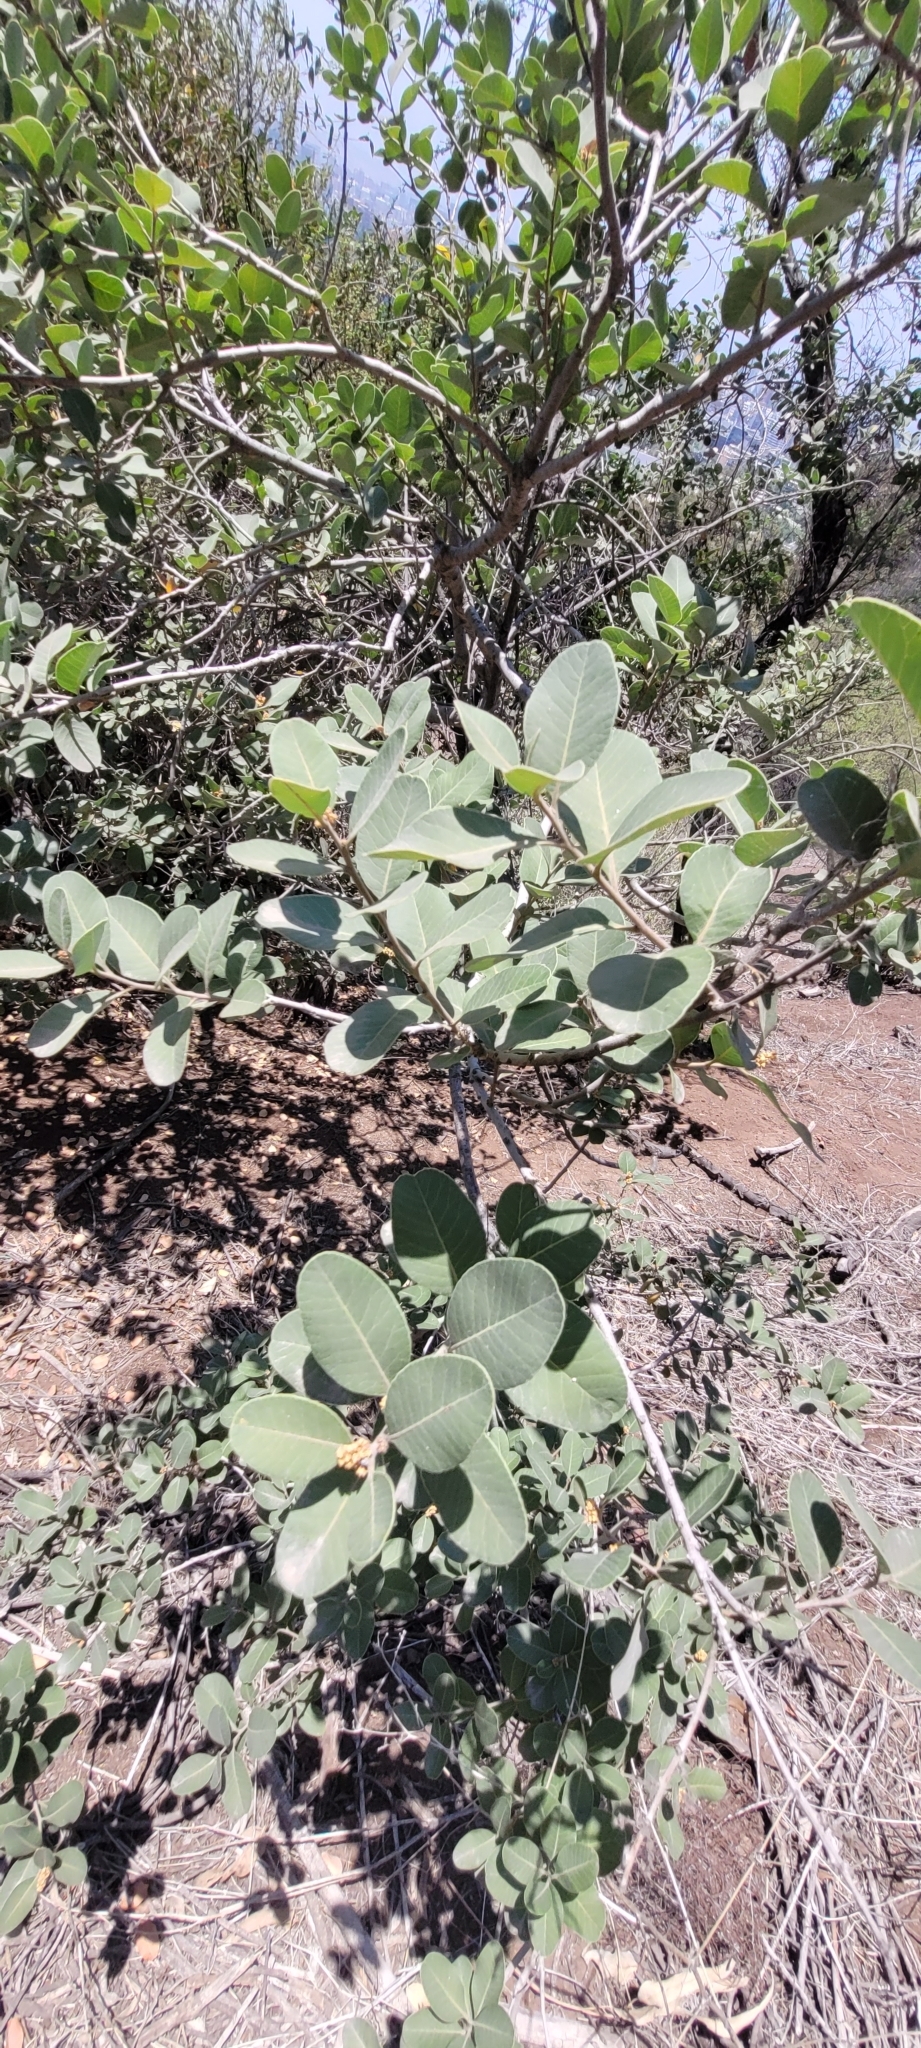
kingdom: Plantae
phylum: Tracheophyta
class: Magnoliopsida
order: Sapindales
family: Anacardiaceae
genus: Lithraea
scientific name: Lithraea caustica
